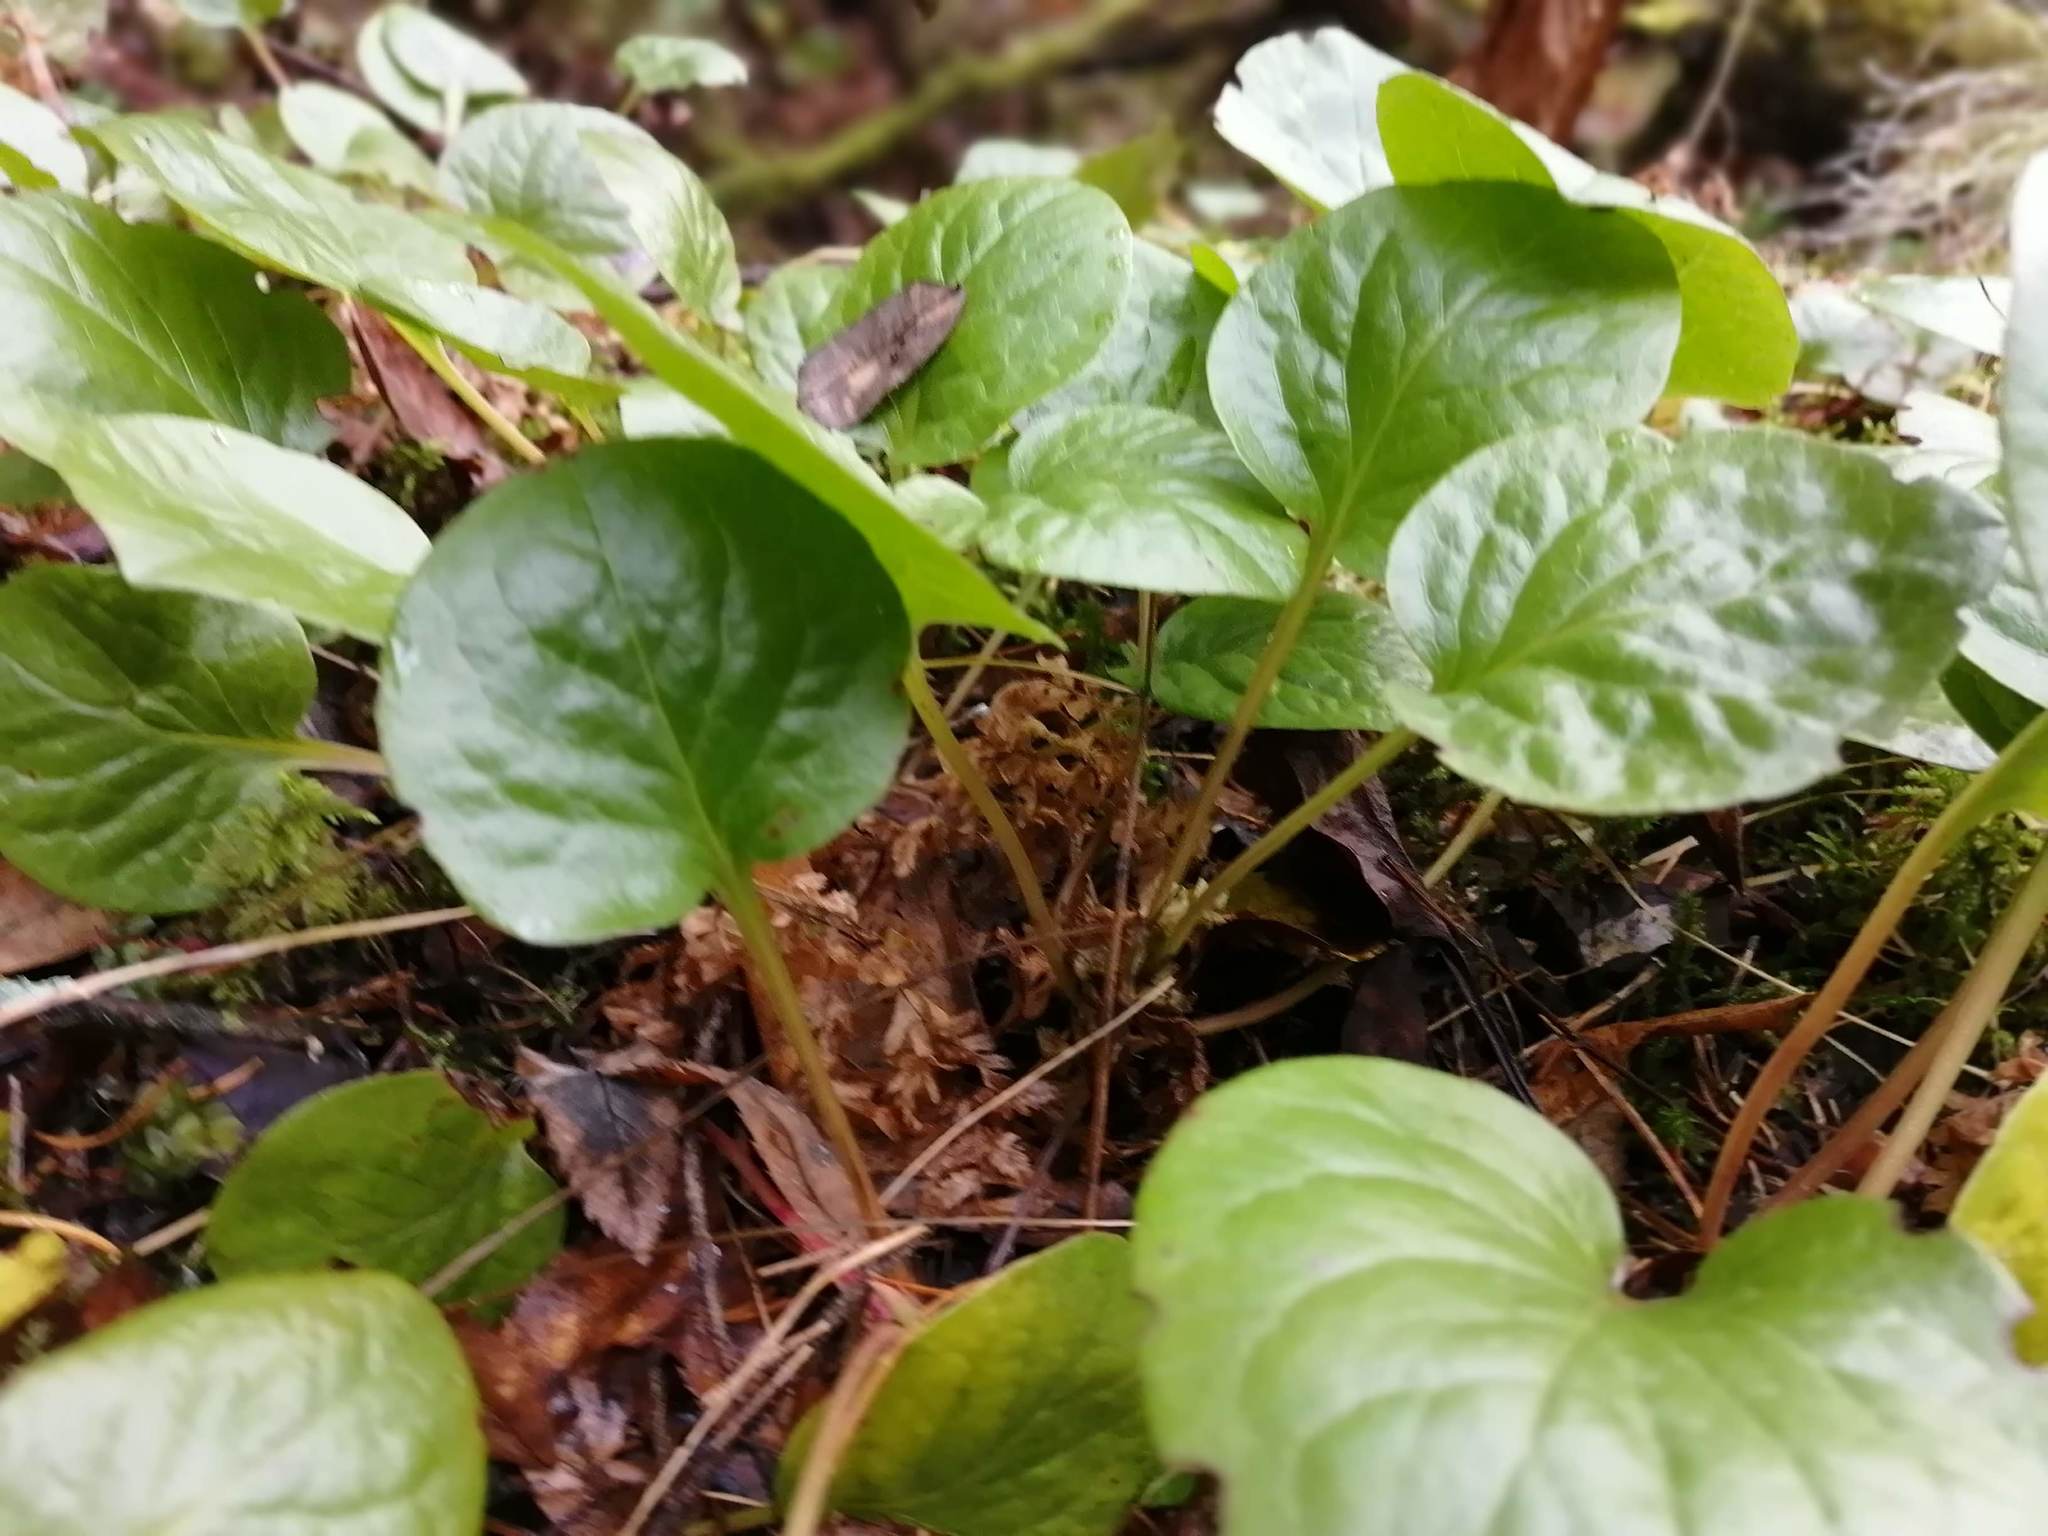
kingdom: Plantae
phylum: Tracheophyta
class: Magnoliopsida
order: Ericales
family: Ericaceae
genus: Pyrola
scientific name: Pyrola asarifolia
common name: Bog wintergreen
